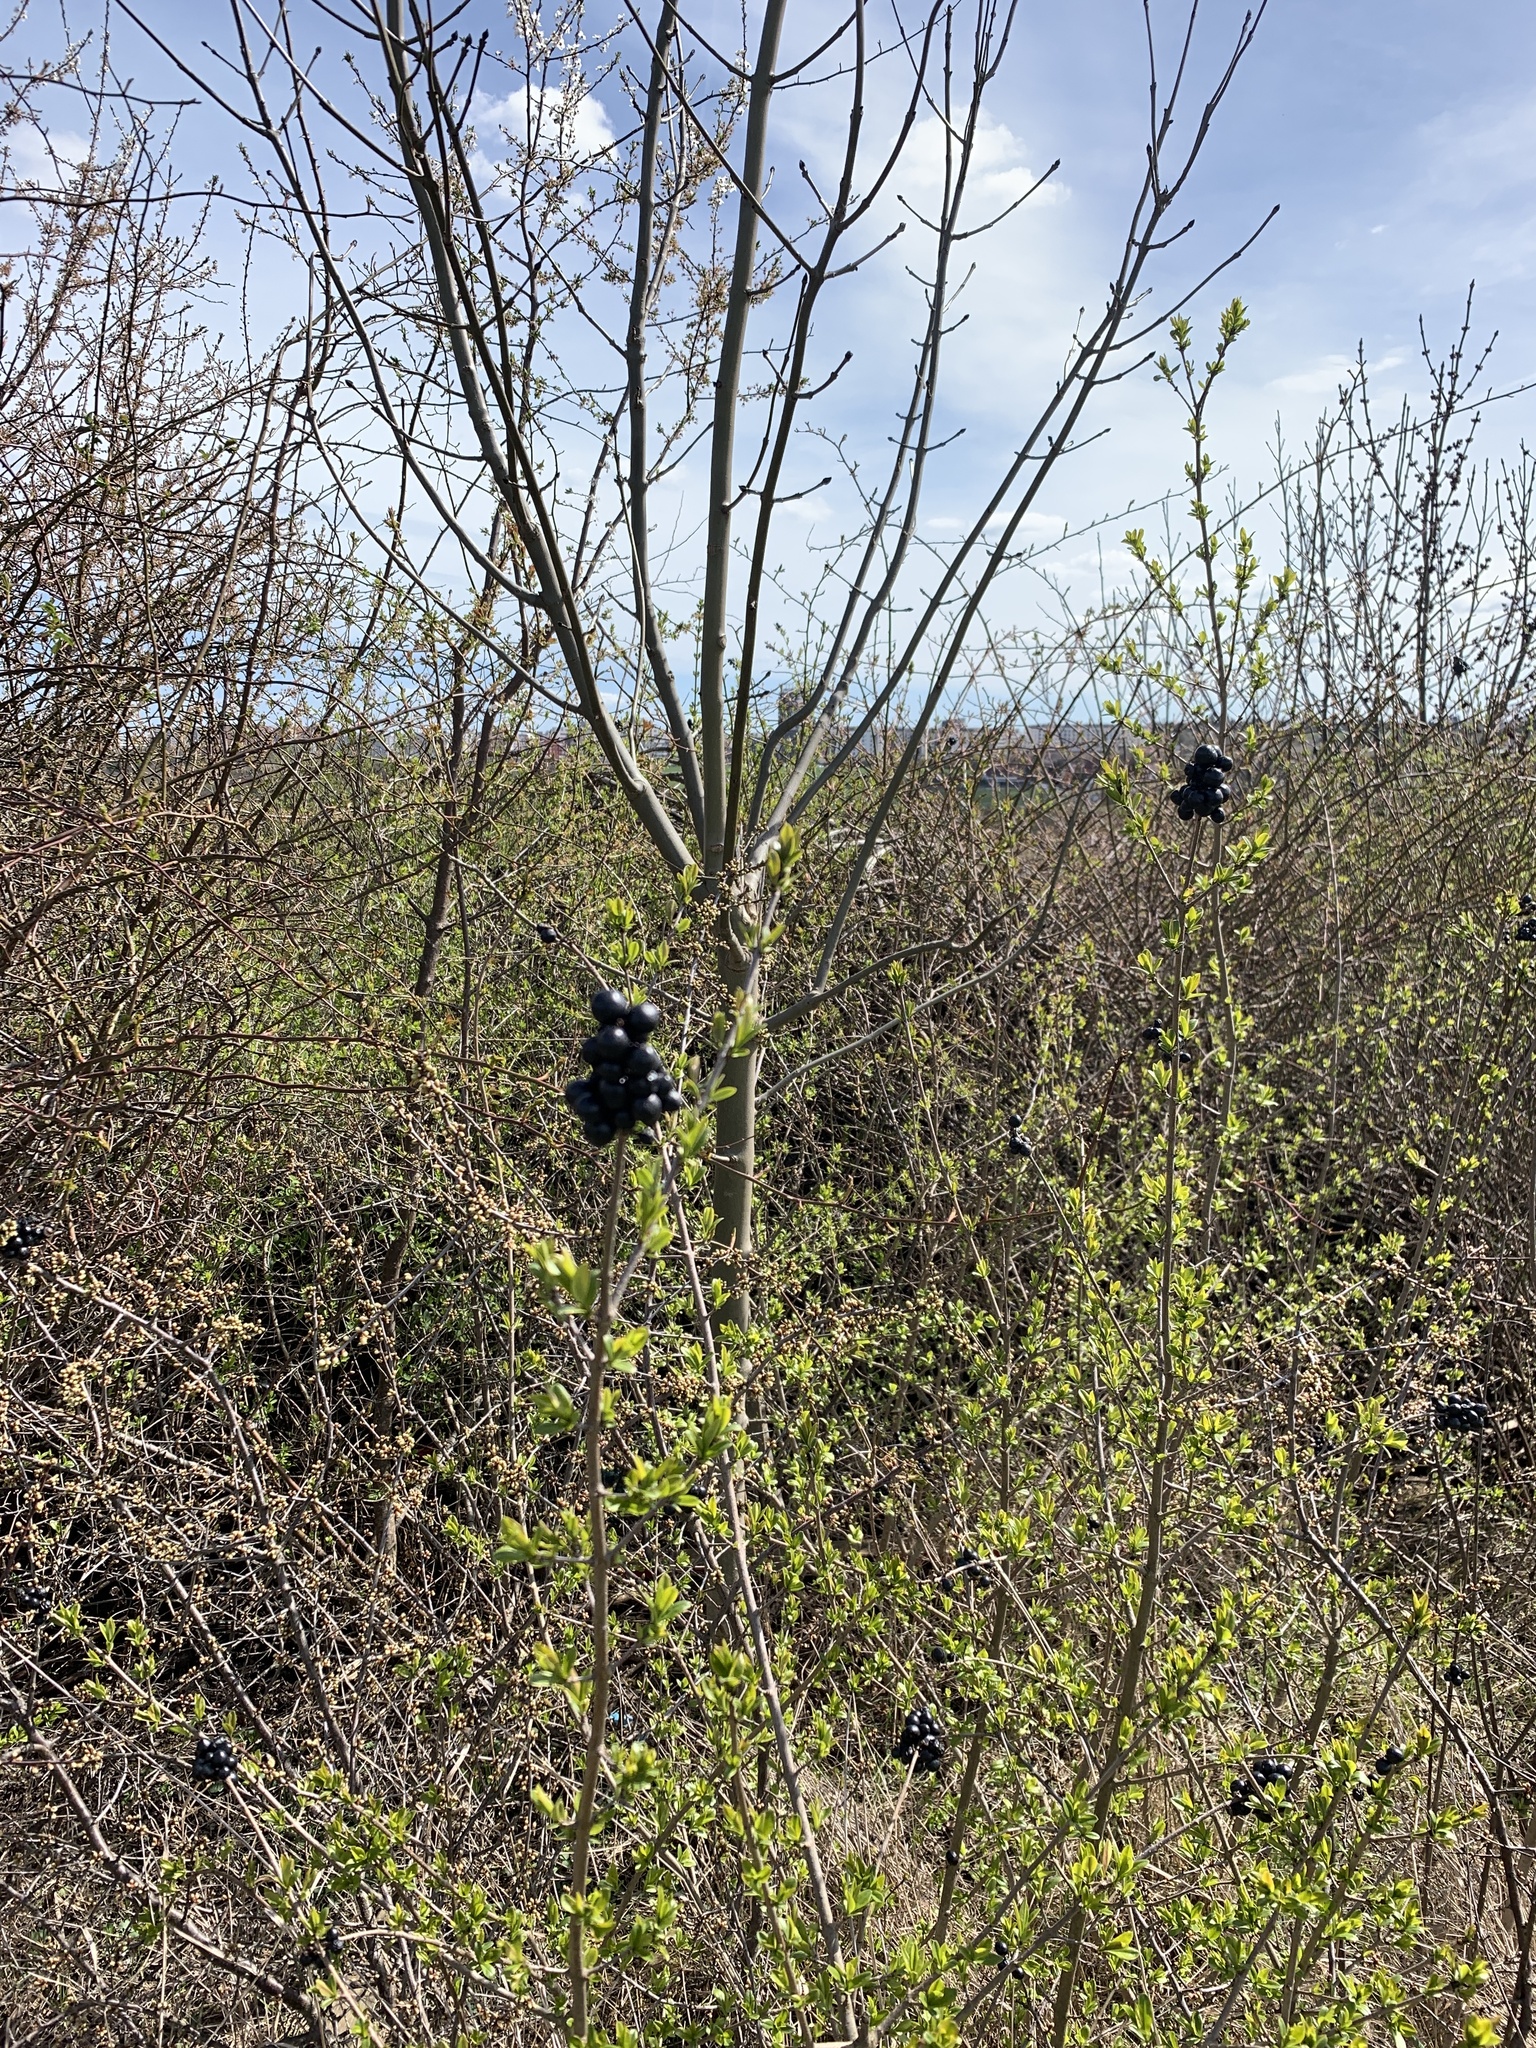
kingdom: Plantae
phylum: Tracheophyta
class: Magnoliopsida
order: Lamiales
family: Oleaceae
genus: Ligustrum
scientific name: Ligustrum vulgare
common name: Wild privet
